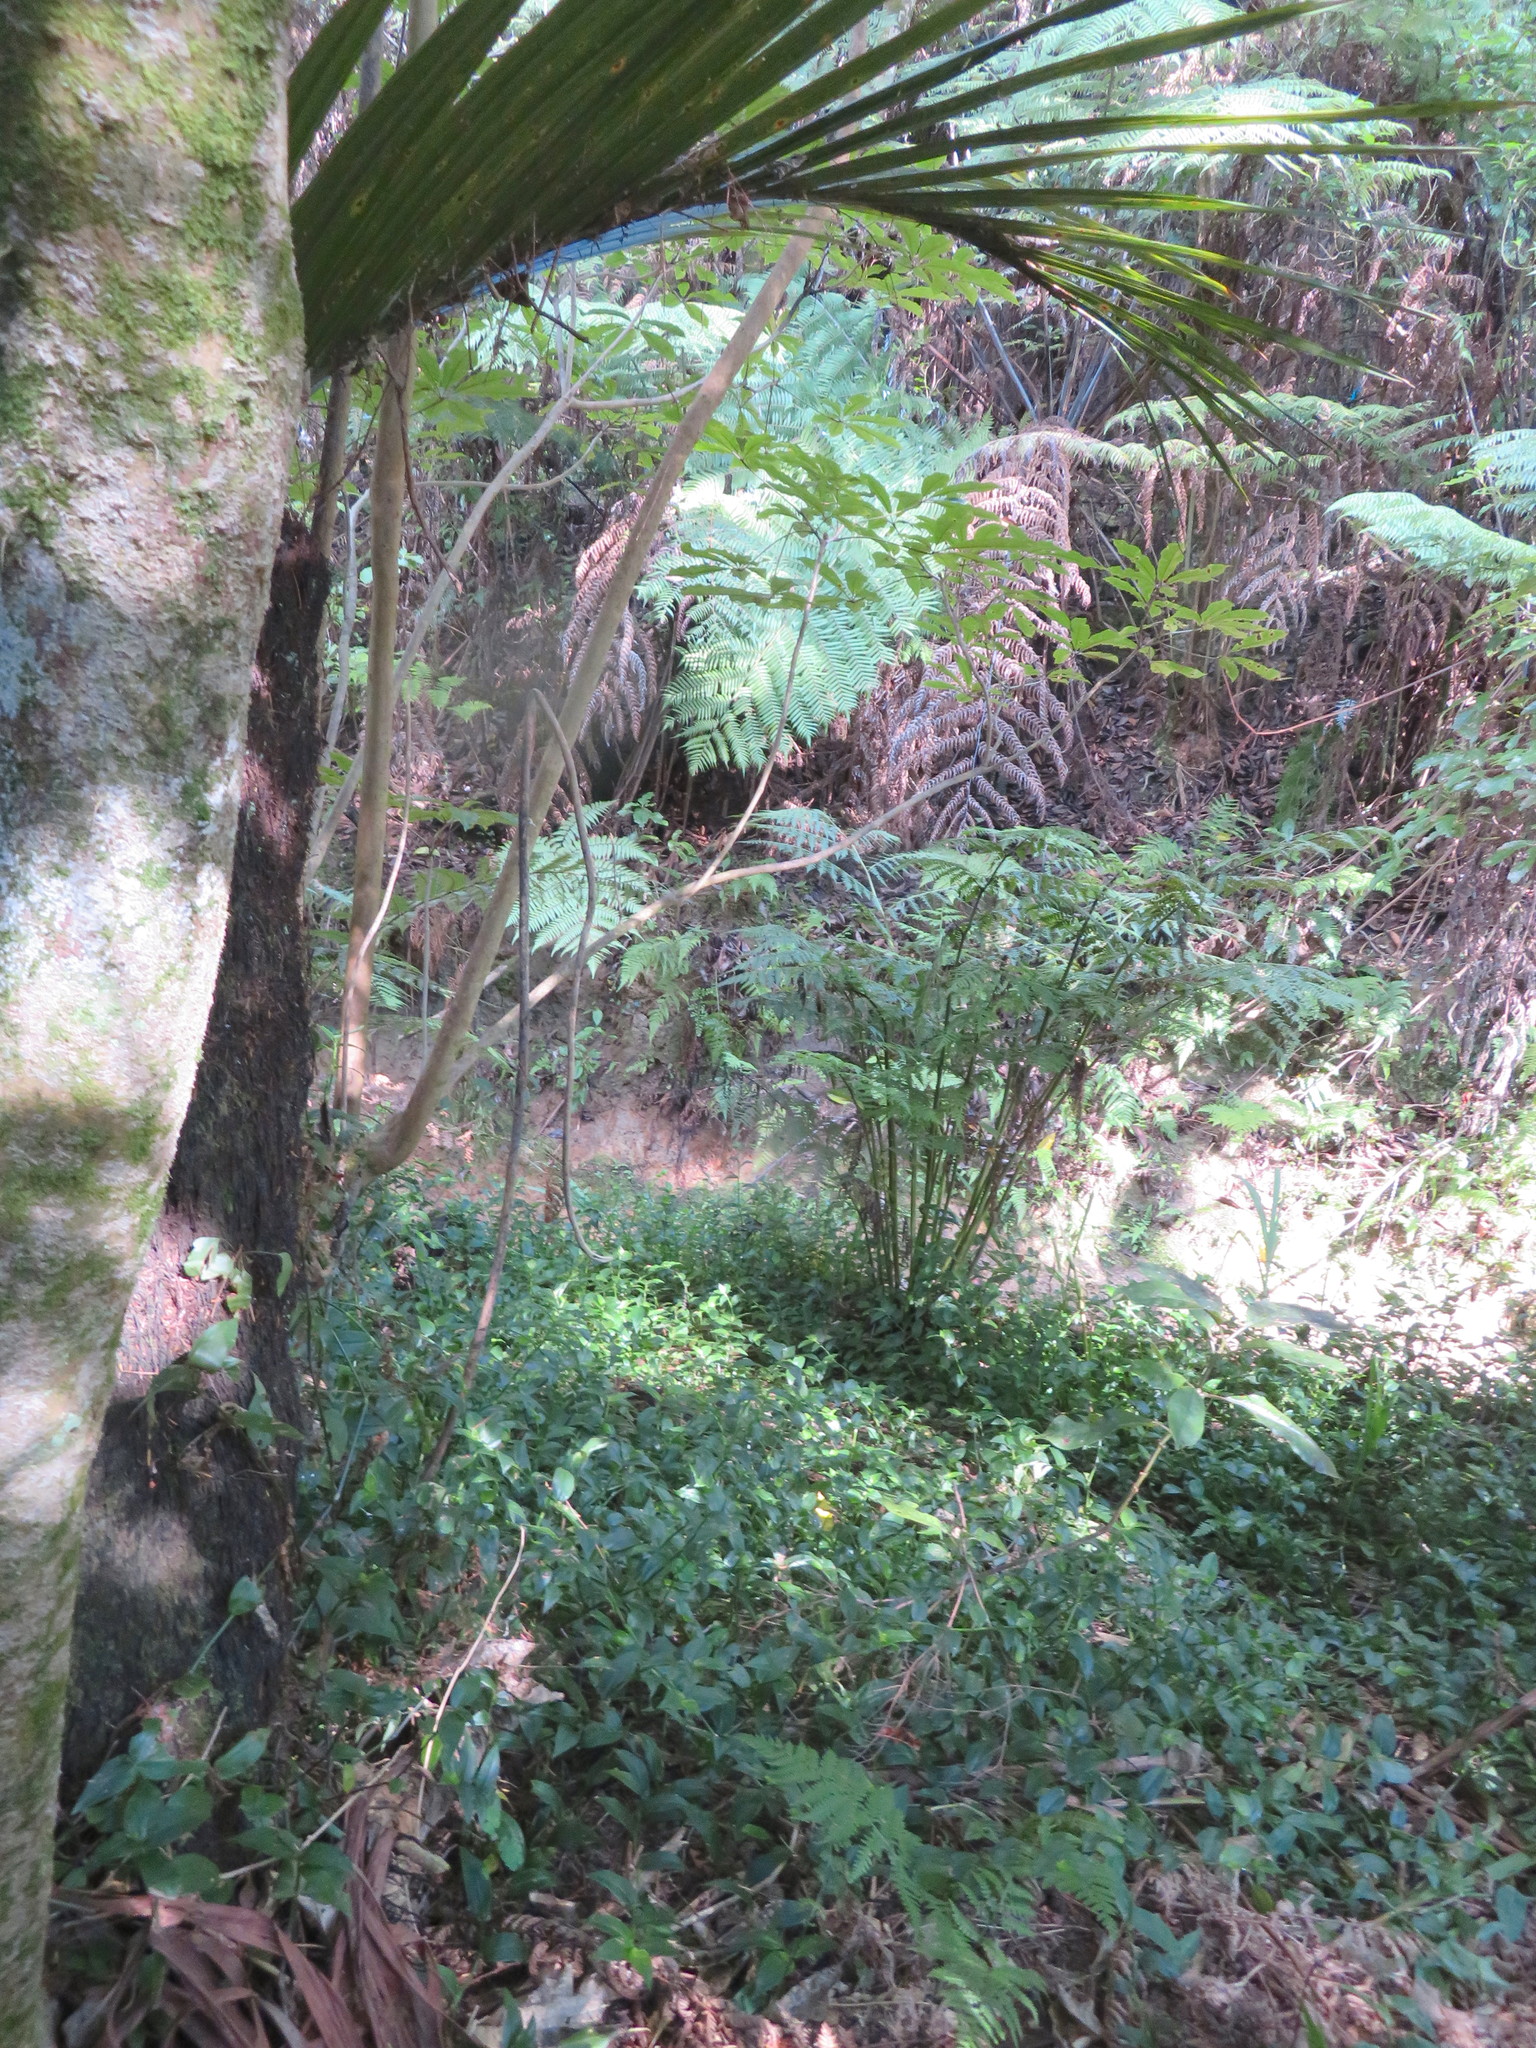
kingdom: Plantae
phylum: Tracheophyta
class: Liliopsida
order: Commelinales
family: Commelinaceae
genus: Tradescantia
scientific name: Tradescantia fluminensis
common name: Wandering-jew
